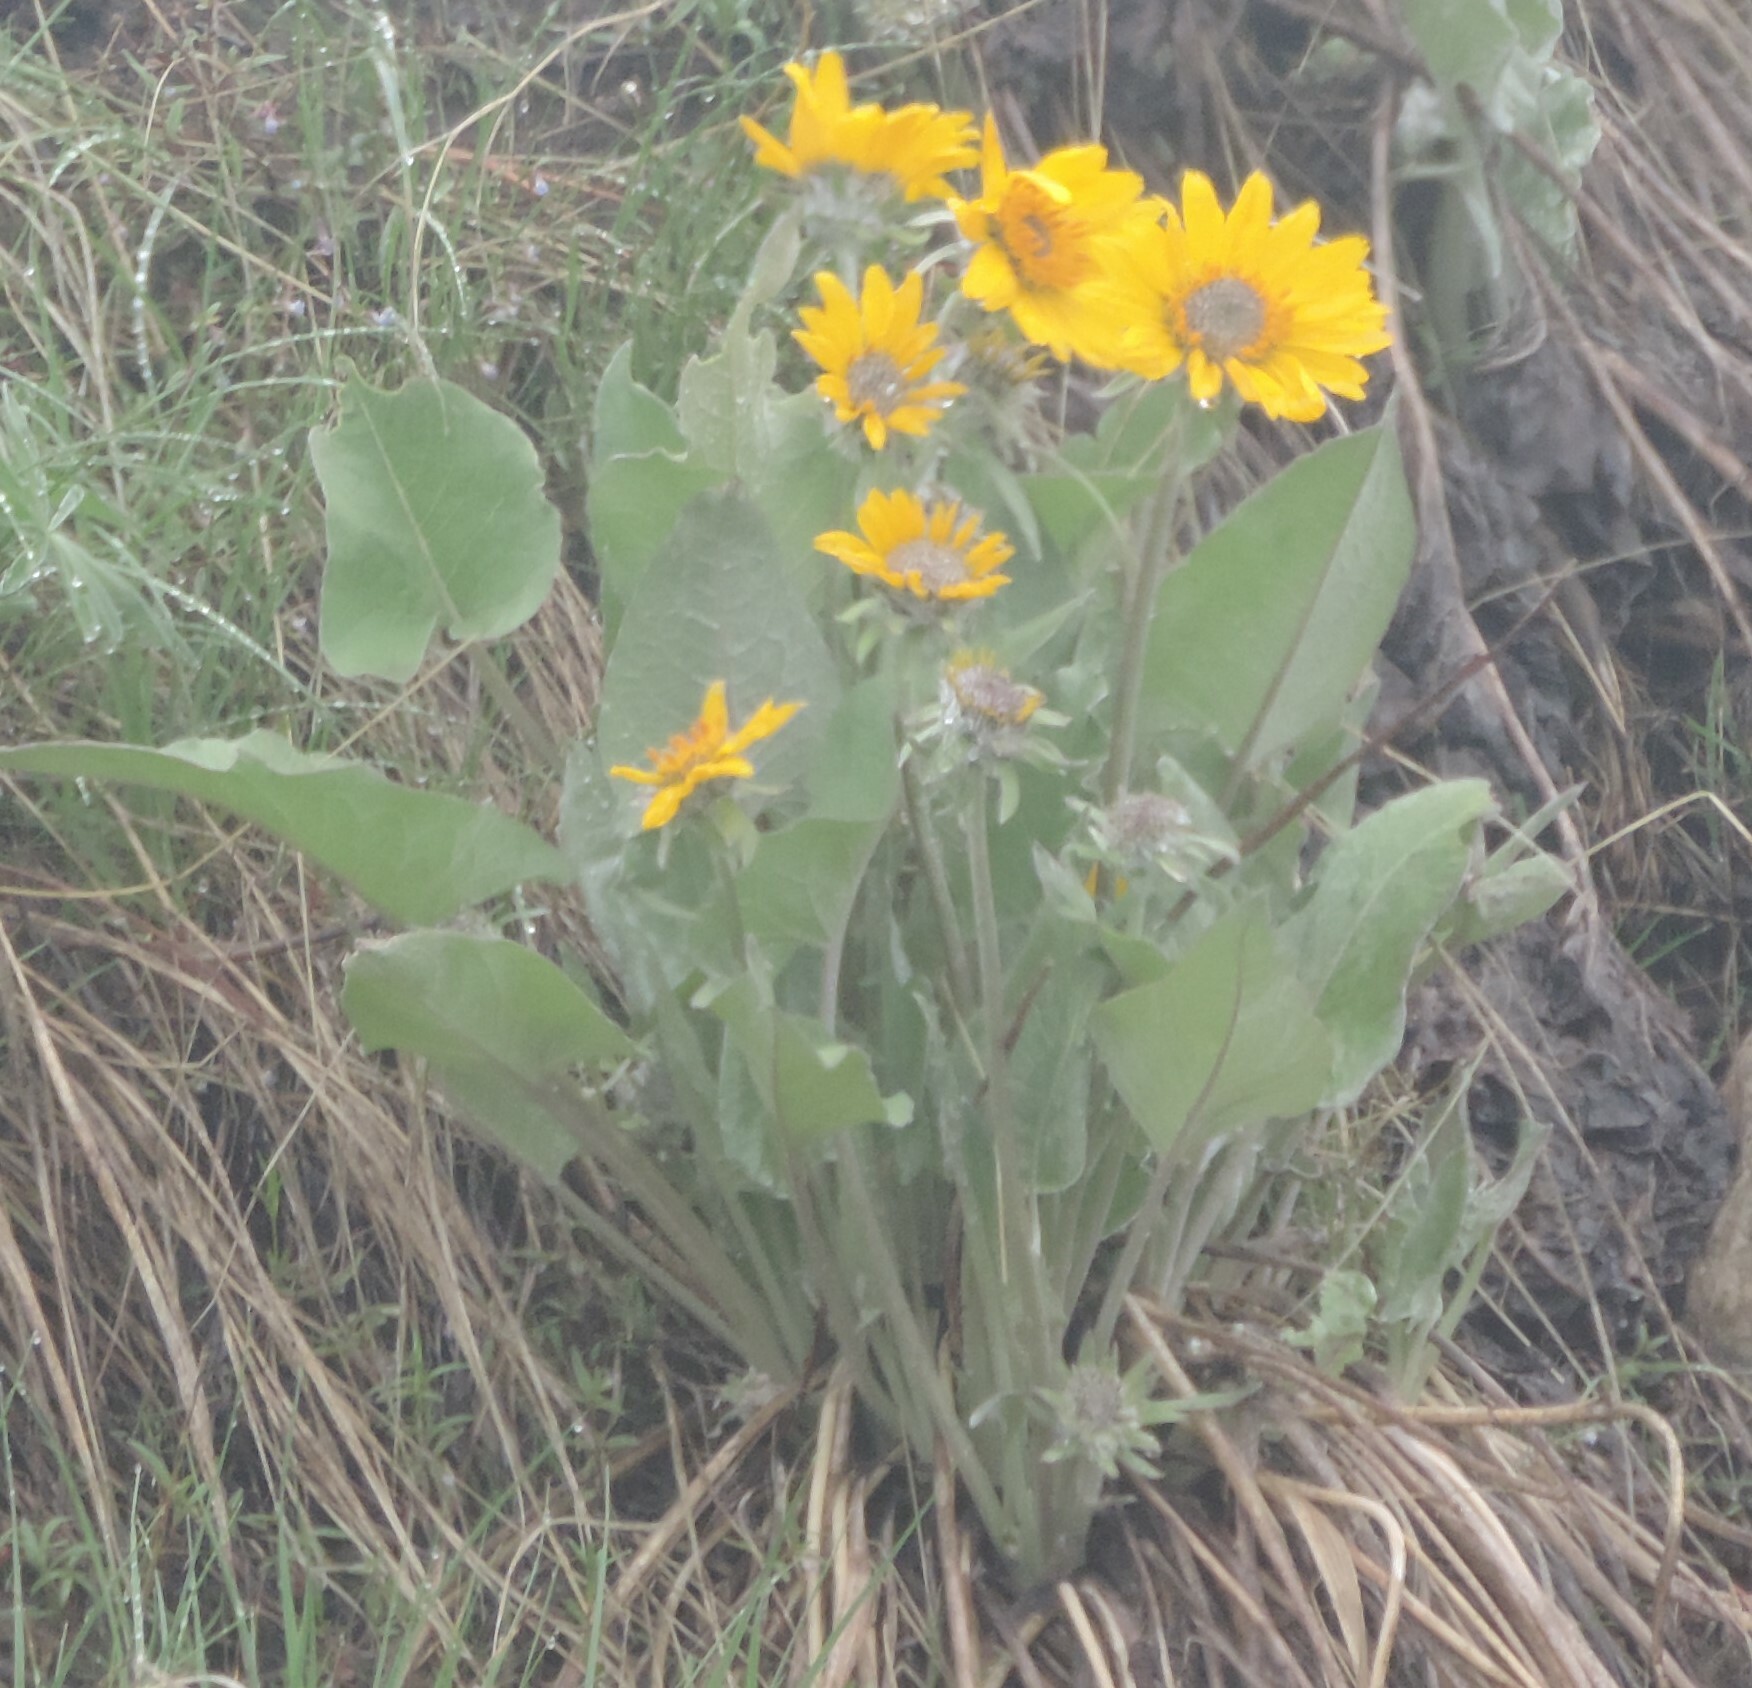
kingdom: Plantae
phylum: Tracheophyta
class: Magnoliopsida
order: Asterales
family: Asteraceae
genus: Wyethia
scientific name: Wyethia sagittata
